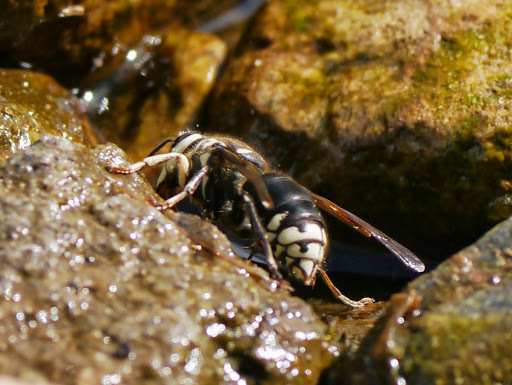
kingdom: Animalia
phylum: Arthropoda
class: Insecta
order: Hymenoptera
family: Vespidae
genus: Dolichovespula
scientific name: Dolichovespula maculata
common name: Bald-faced hornet
